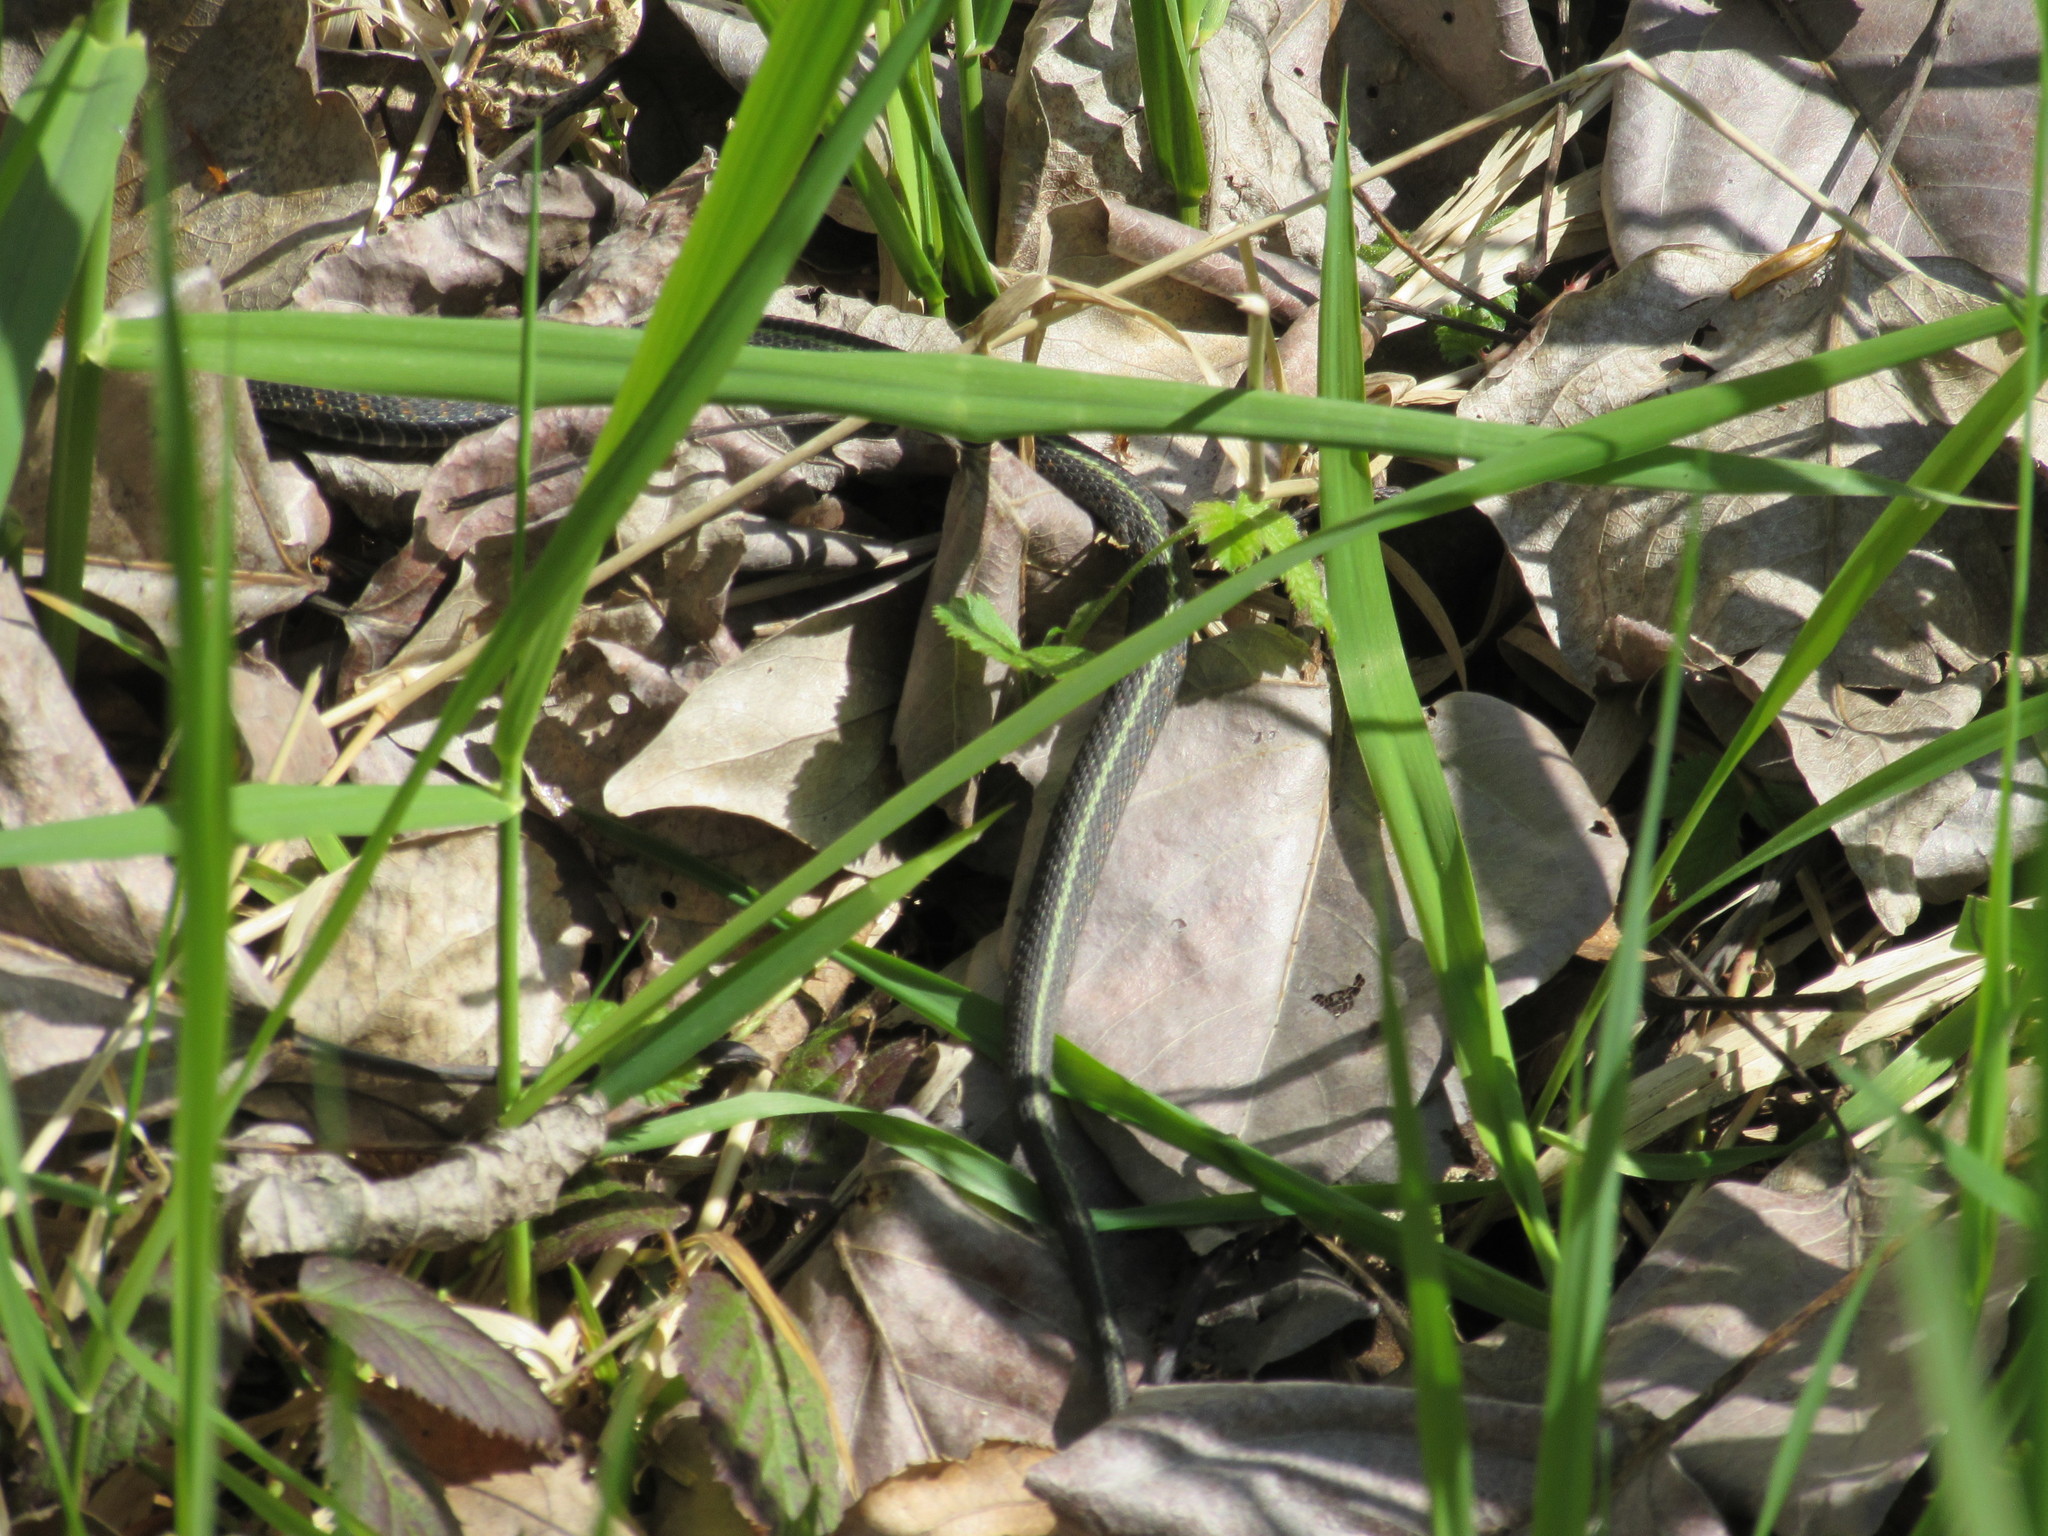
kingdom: Animalia
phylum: Chordata
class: Squamata
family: Colubridae
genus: Thamnophis
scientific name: Thamnophis sirtalis
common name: Common garter snake
